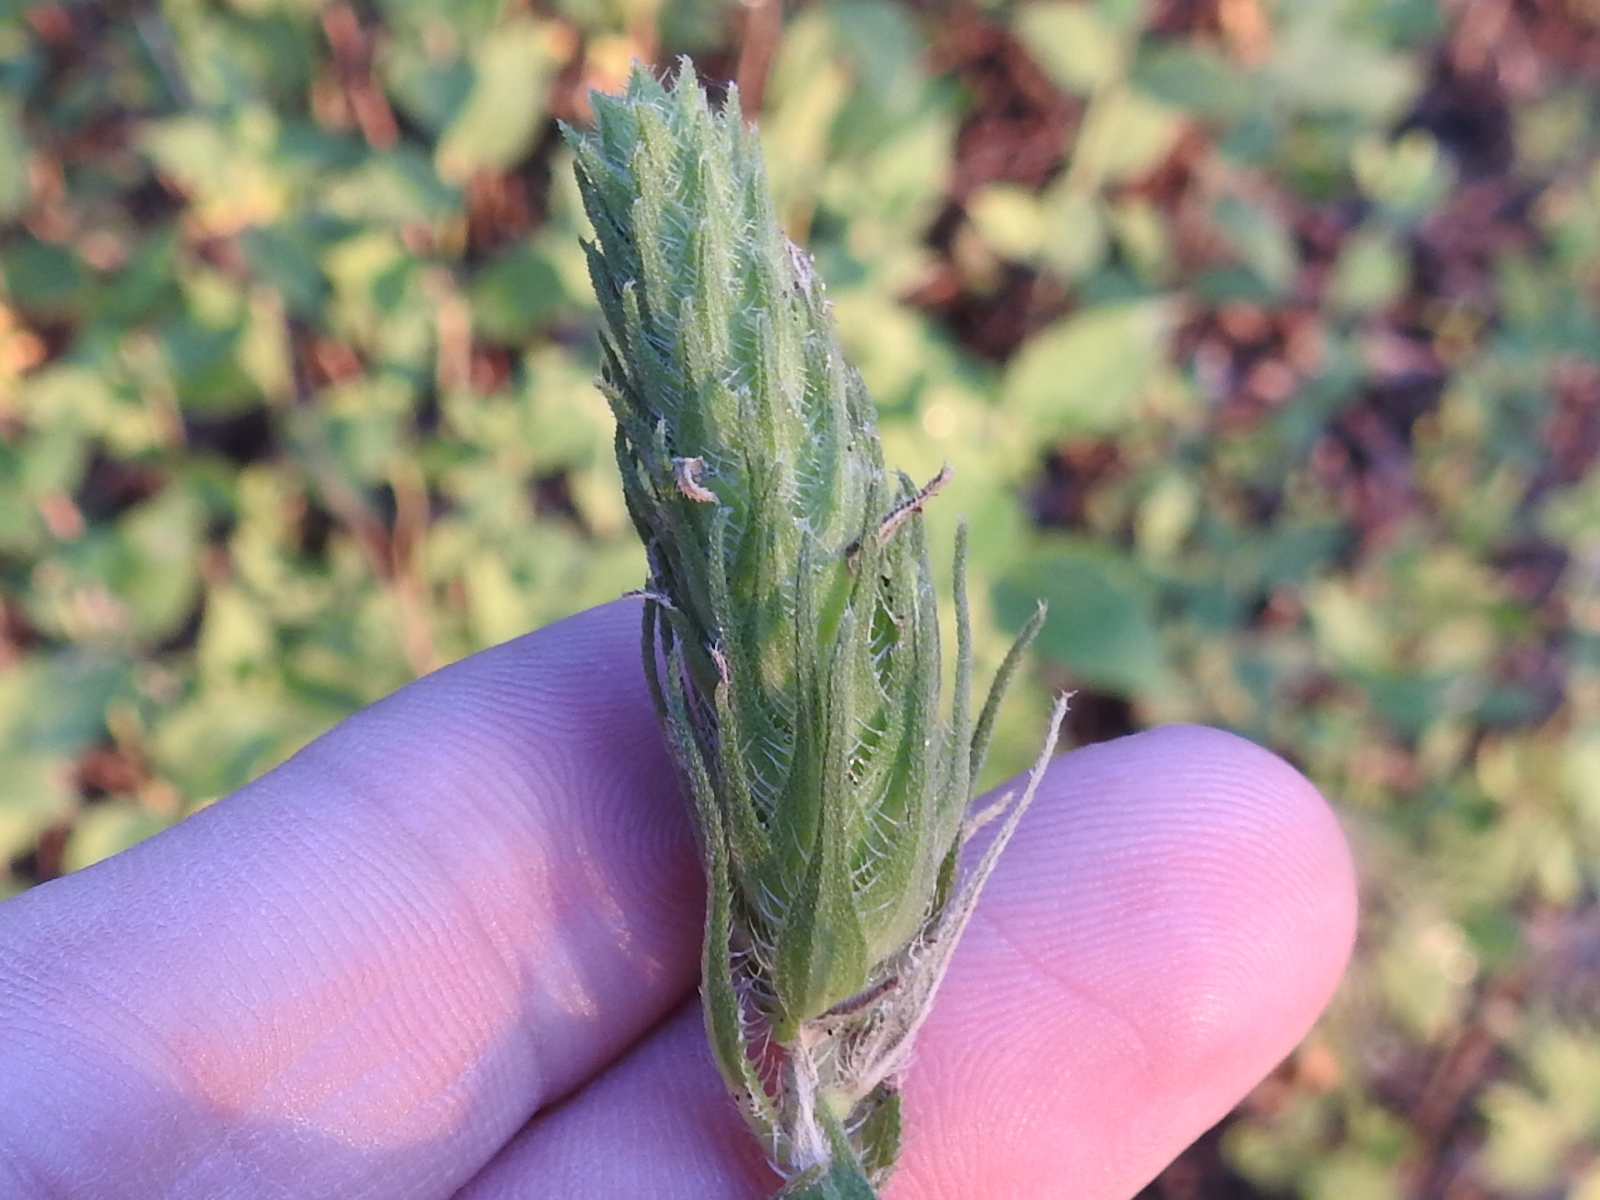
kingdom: Plantae
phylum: Tracheophyta
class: Magnoliopsida
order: Asterales
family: Asteraceae
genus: Iva
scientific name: Iva annua
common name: Marsh-elder
